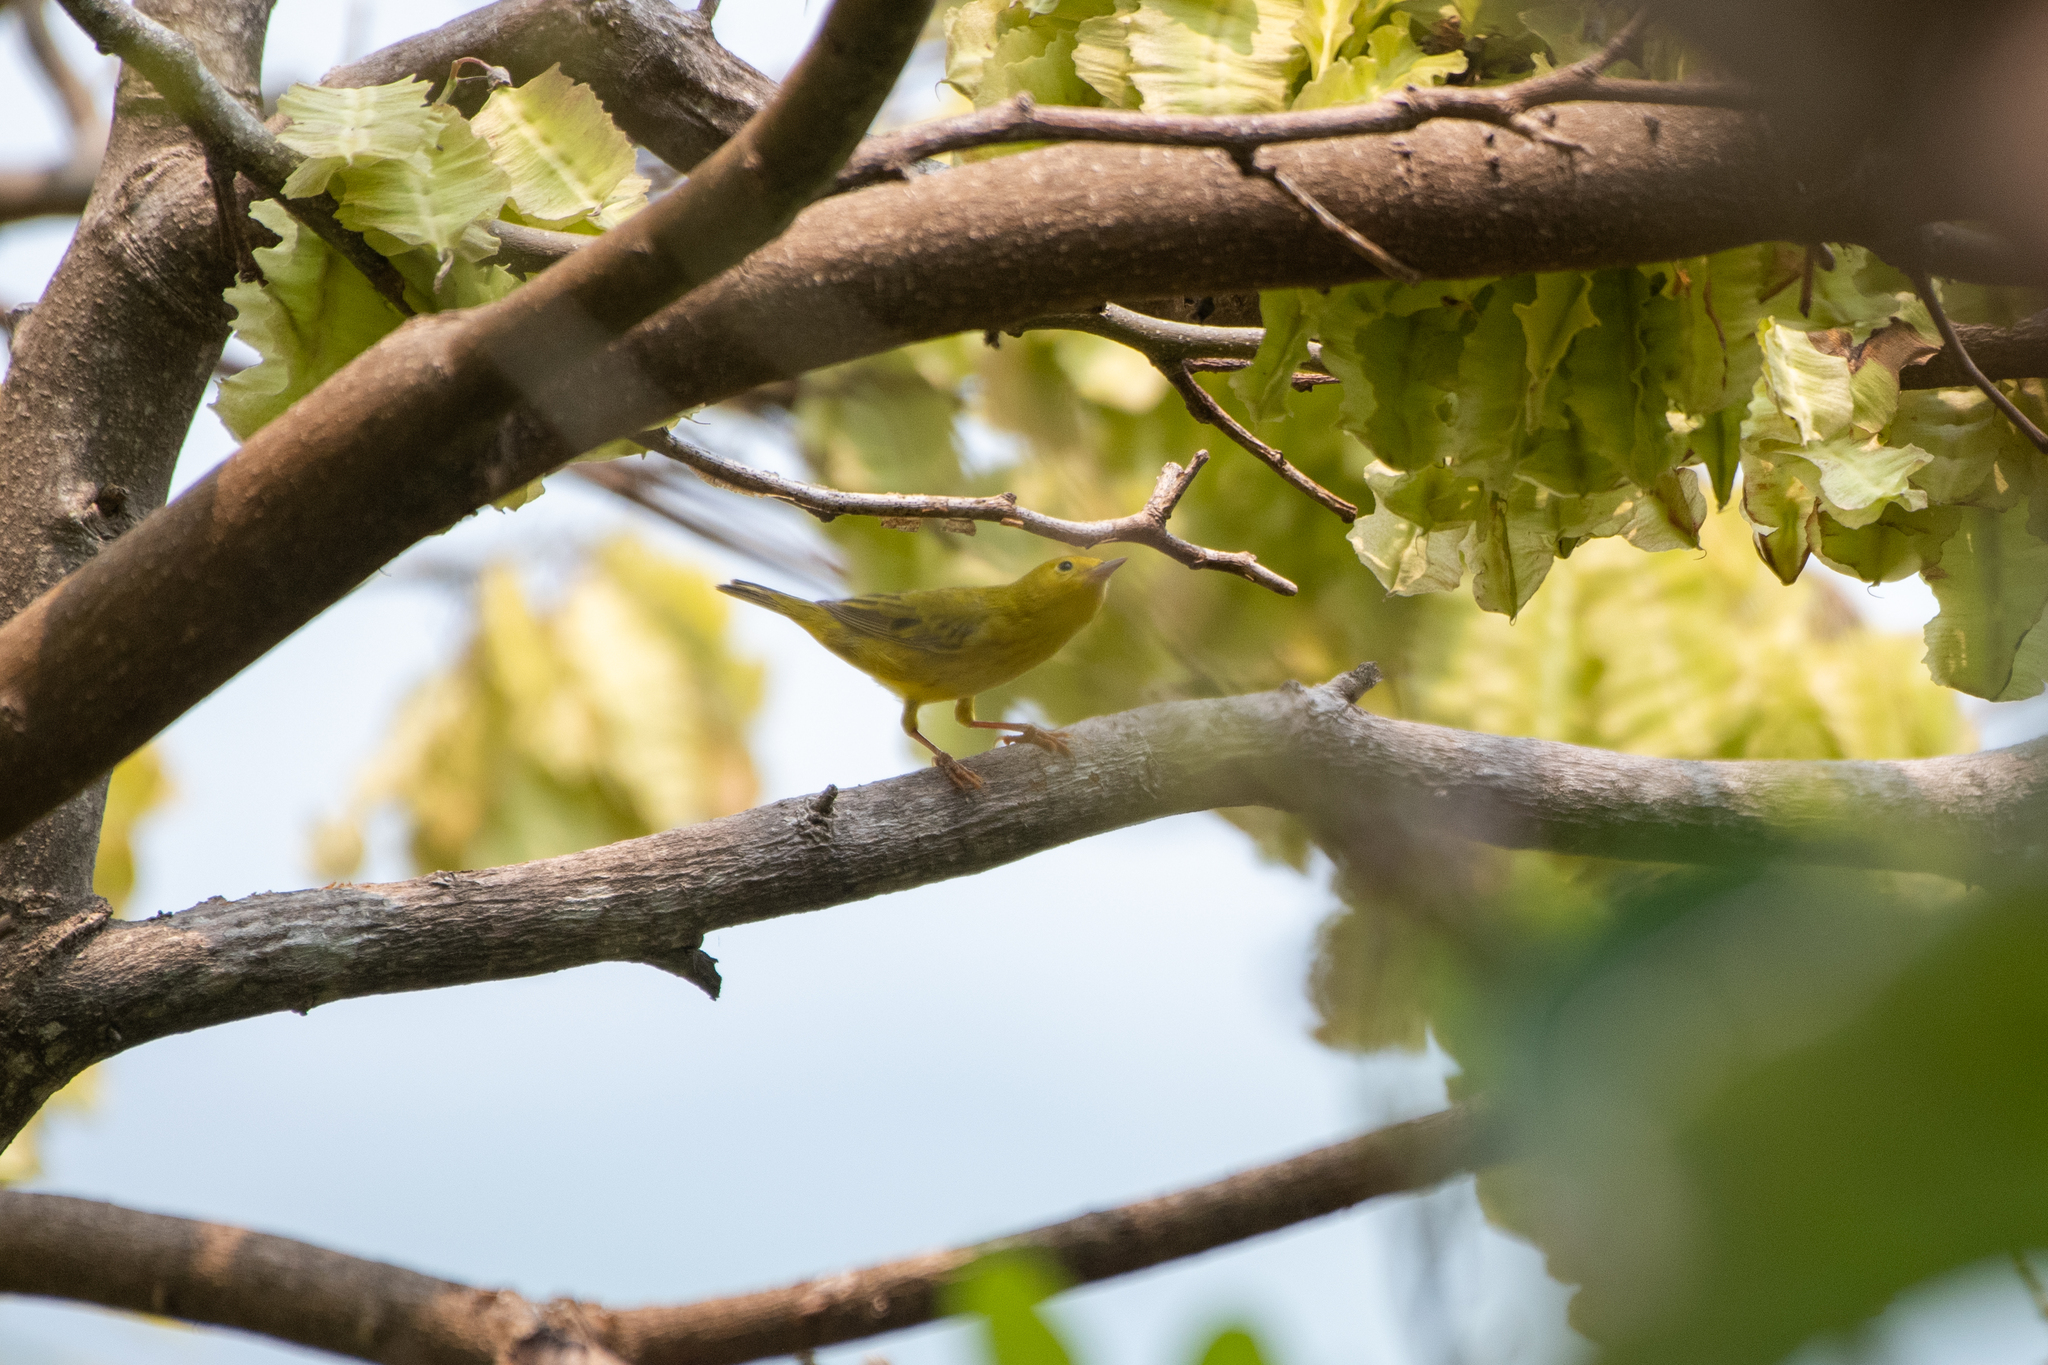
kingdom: Animalia
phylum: Chordata
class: Aves
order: Passeriformes
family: Parulidae
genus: Setophaga
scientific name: Setophaga petechia
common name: Yellow warbler
